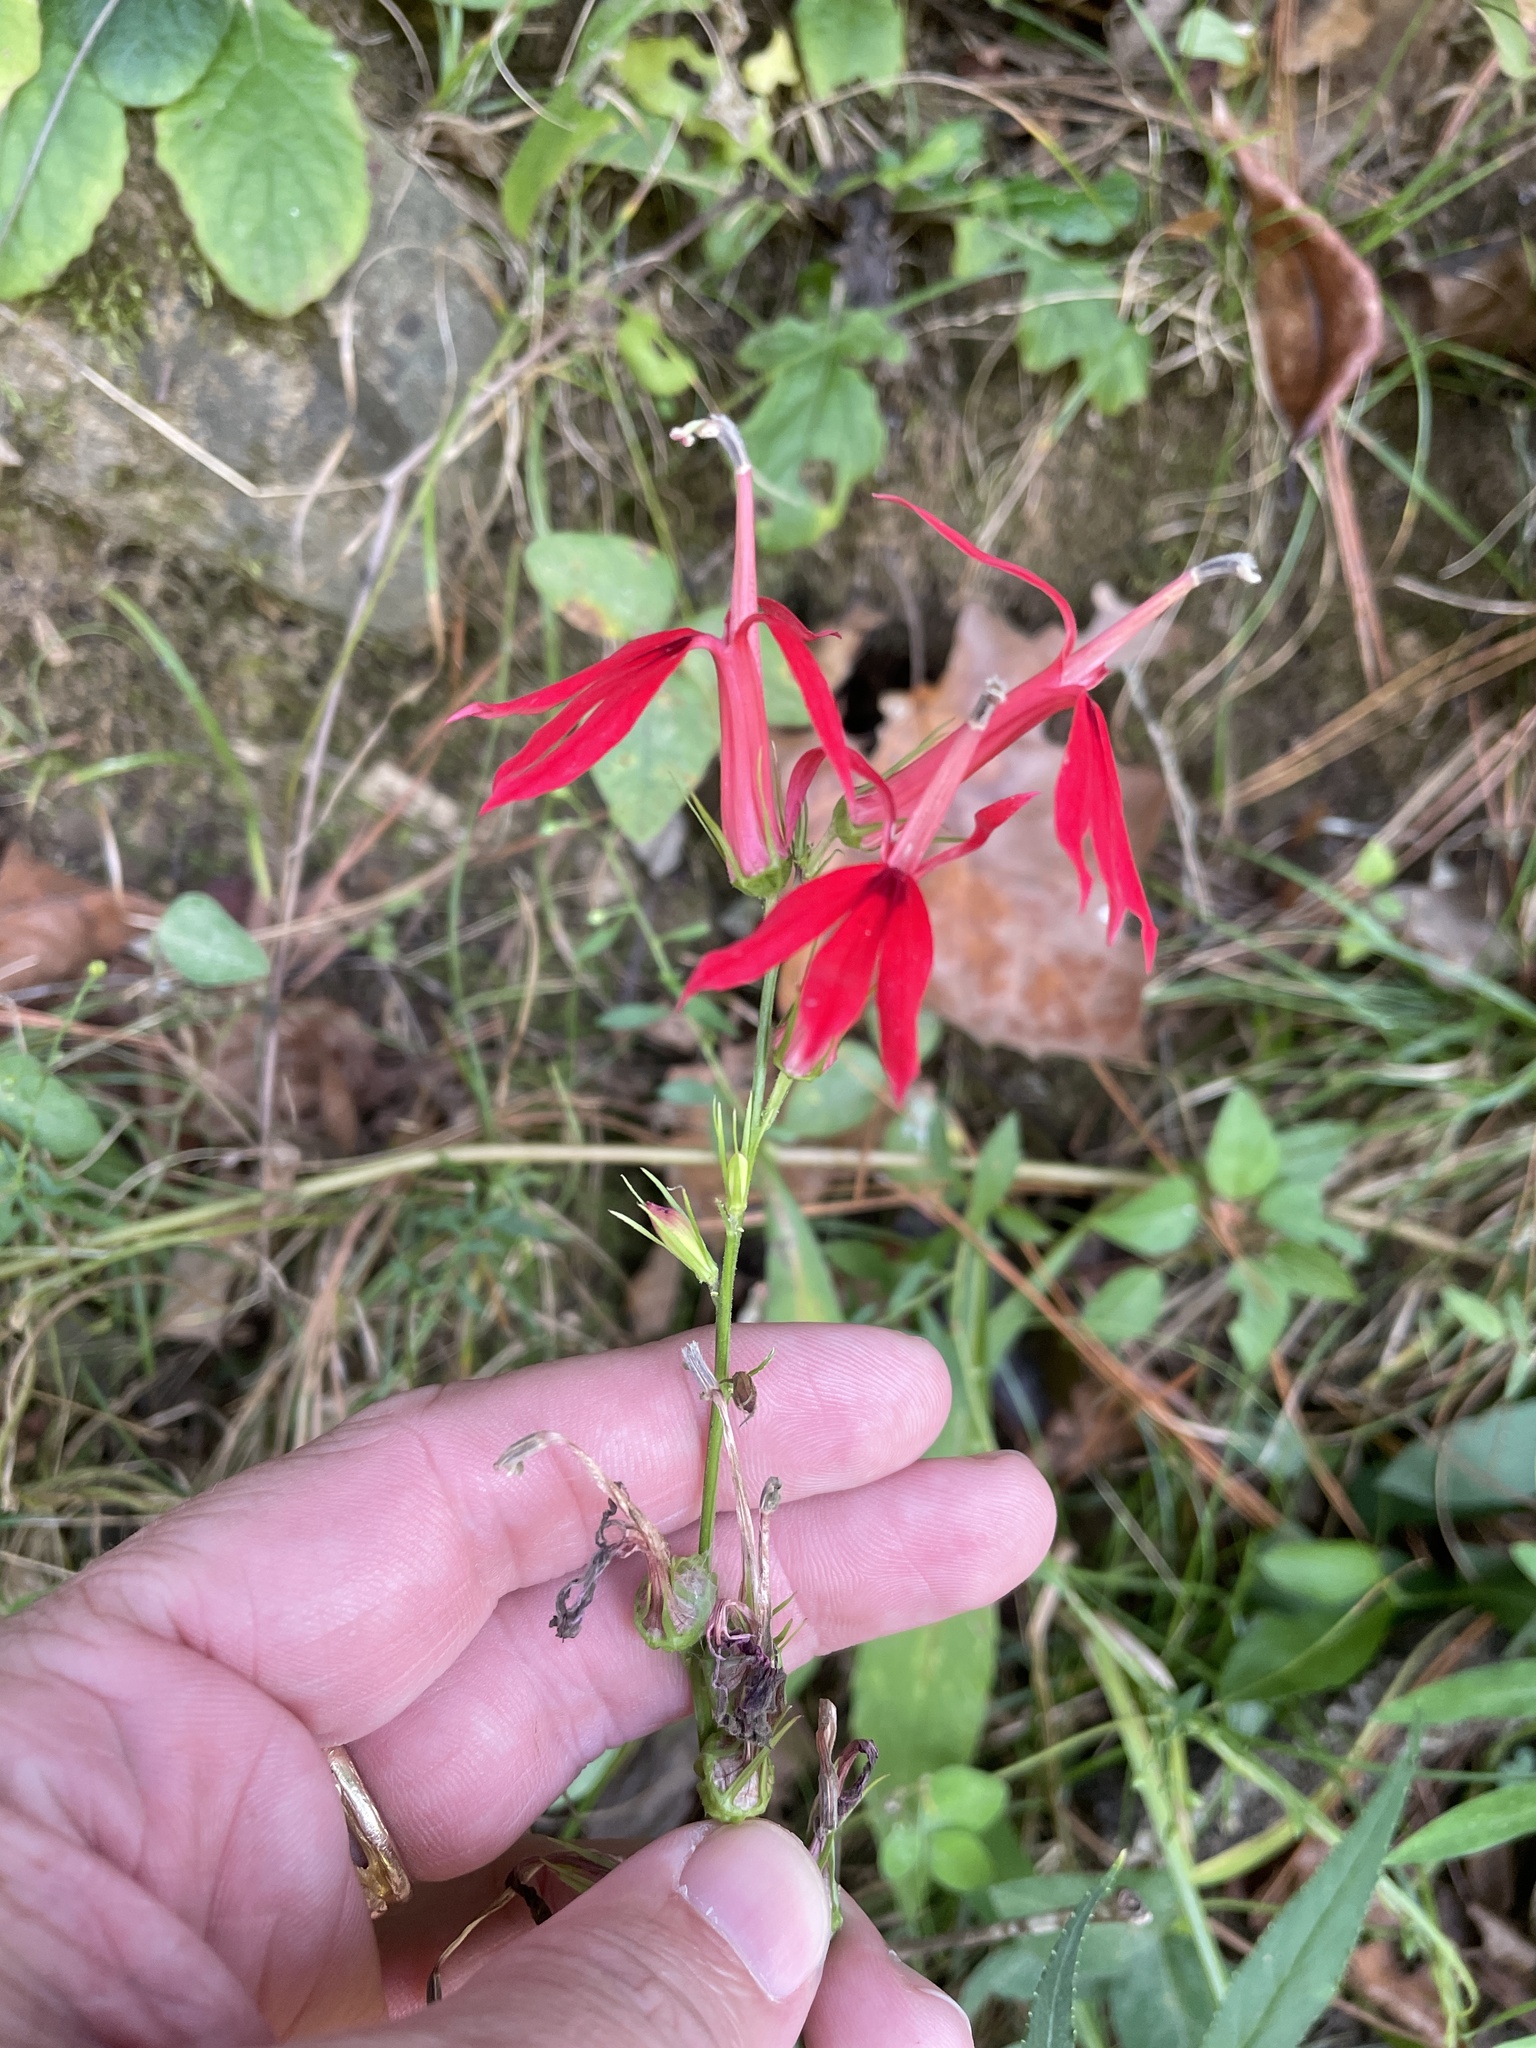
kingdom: Plantae
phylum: Tracheophyta
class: Magnoliopsida
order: Asterales
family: Campanulaceae
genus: Lobelia
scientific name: Lobelia cardinalis
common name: Cardinal flower
